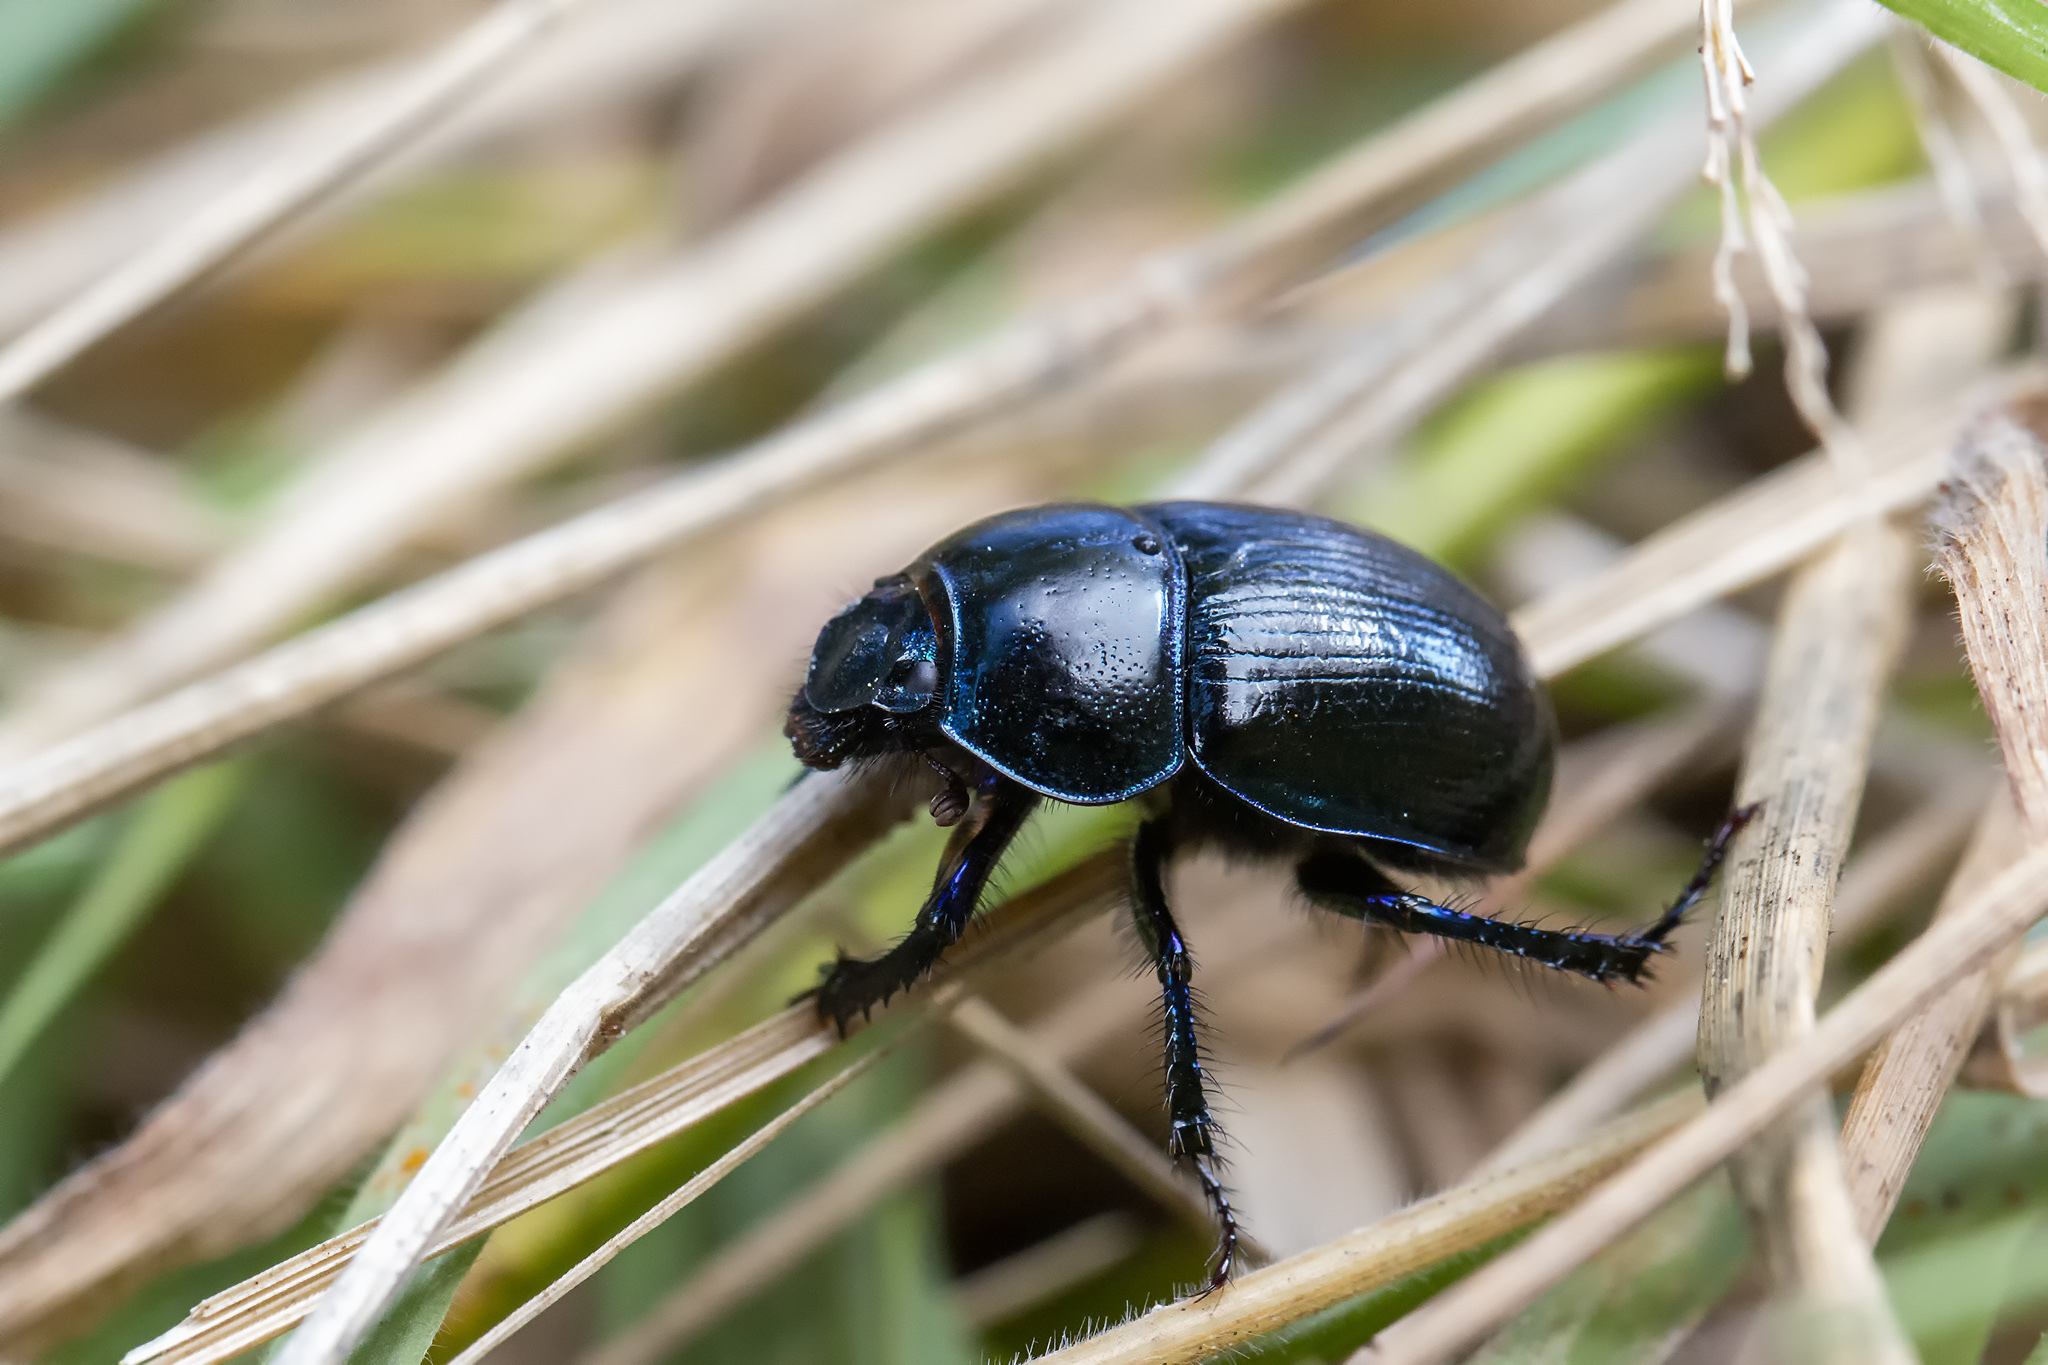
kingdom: Animalia
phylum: Arthropoda
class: Insecta
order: Coleoptera
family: Geotrupidae
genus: Anoplotrupes
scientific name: Anoplotrupes stercorosus
